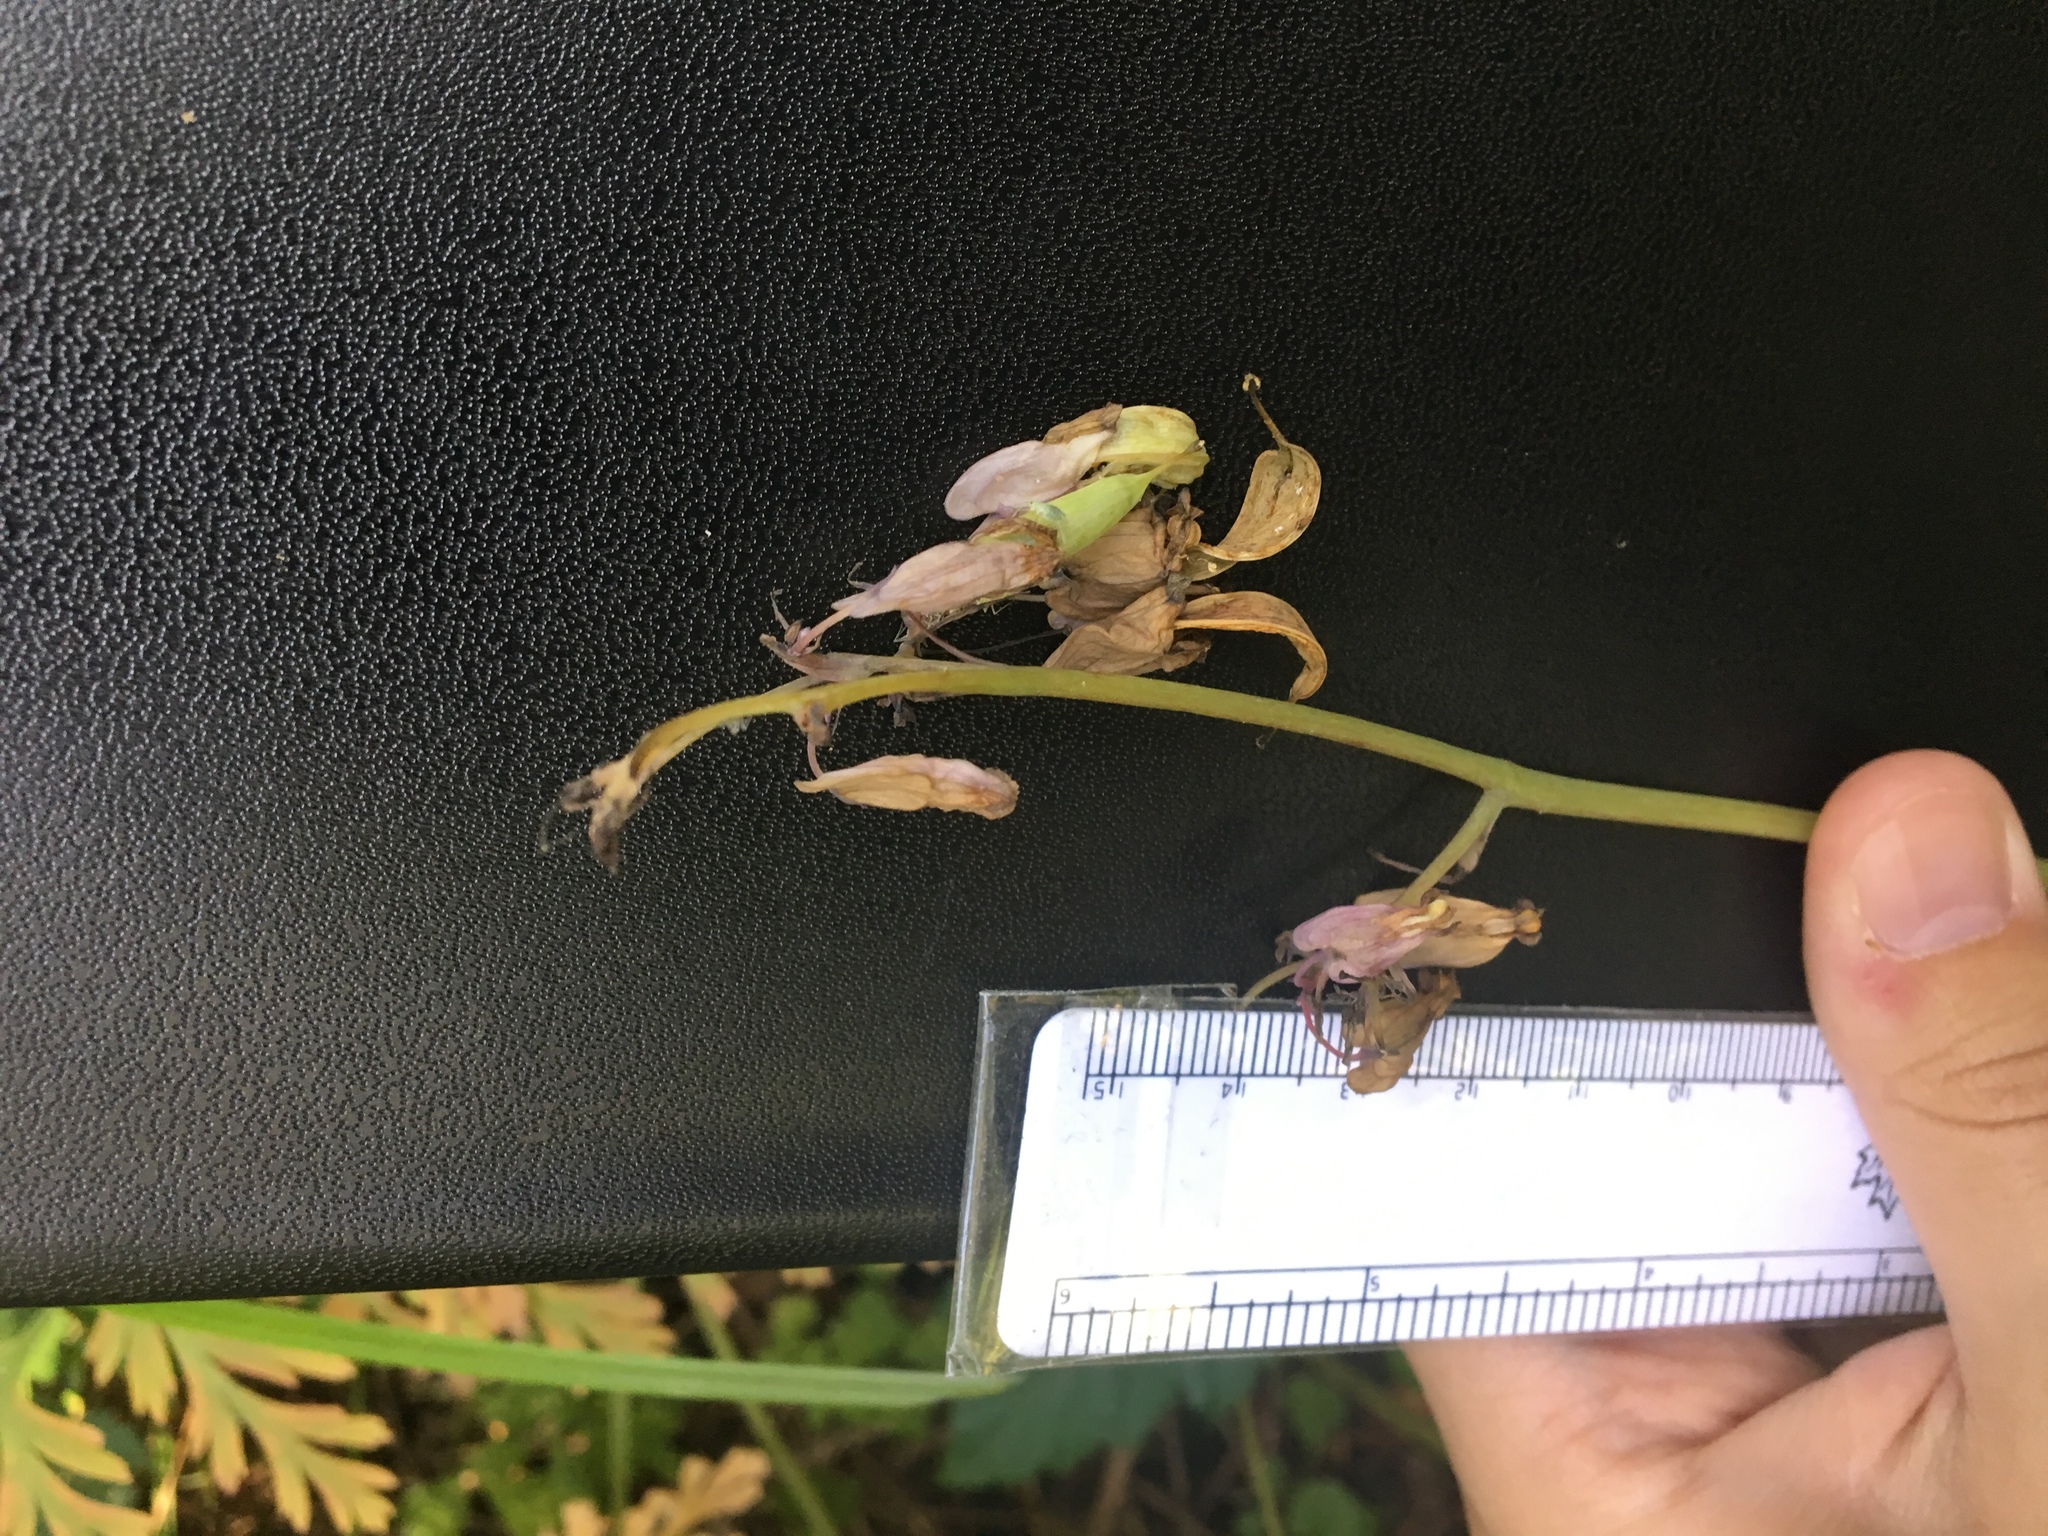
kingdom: Plantae
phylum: Tracheophyta
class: Magnoliopsida
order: Ranunculales
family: Papaveraceae
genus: Dicentra
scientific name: Dicentra formosa
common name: Bleeding-heart
